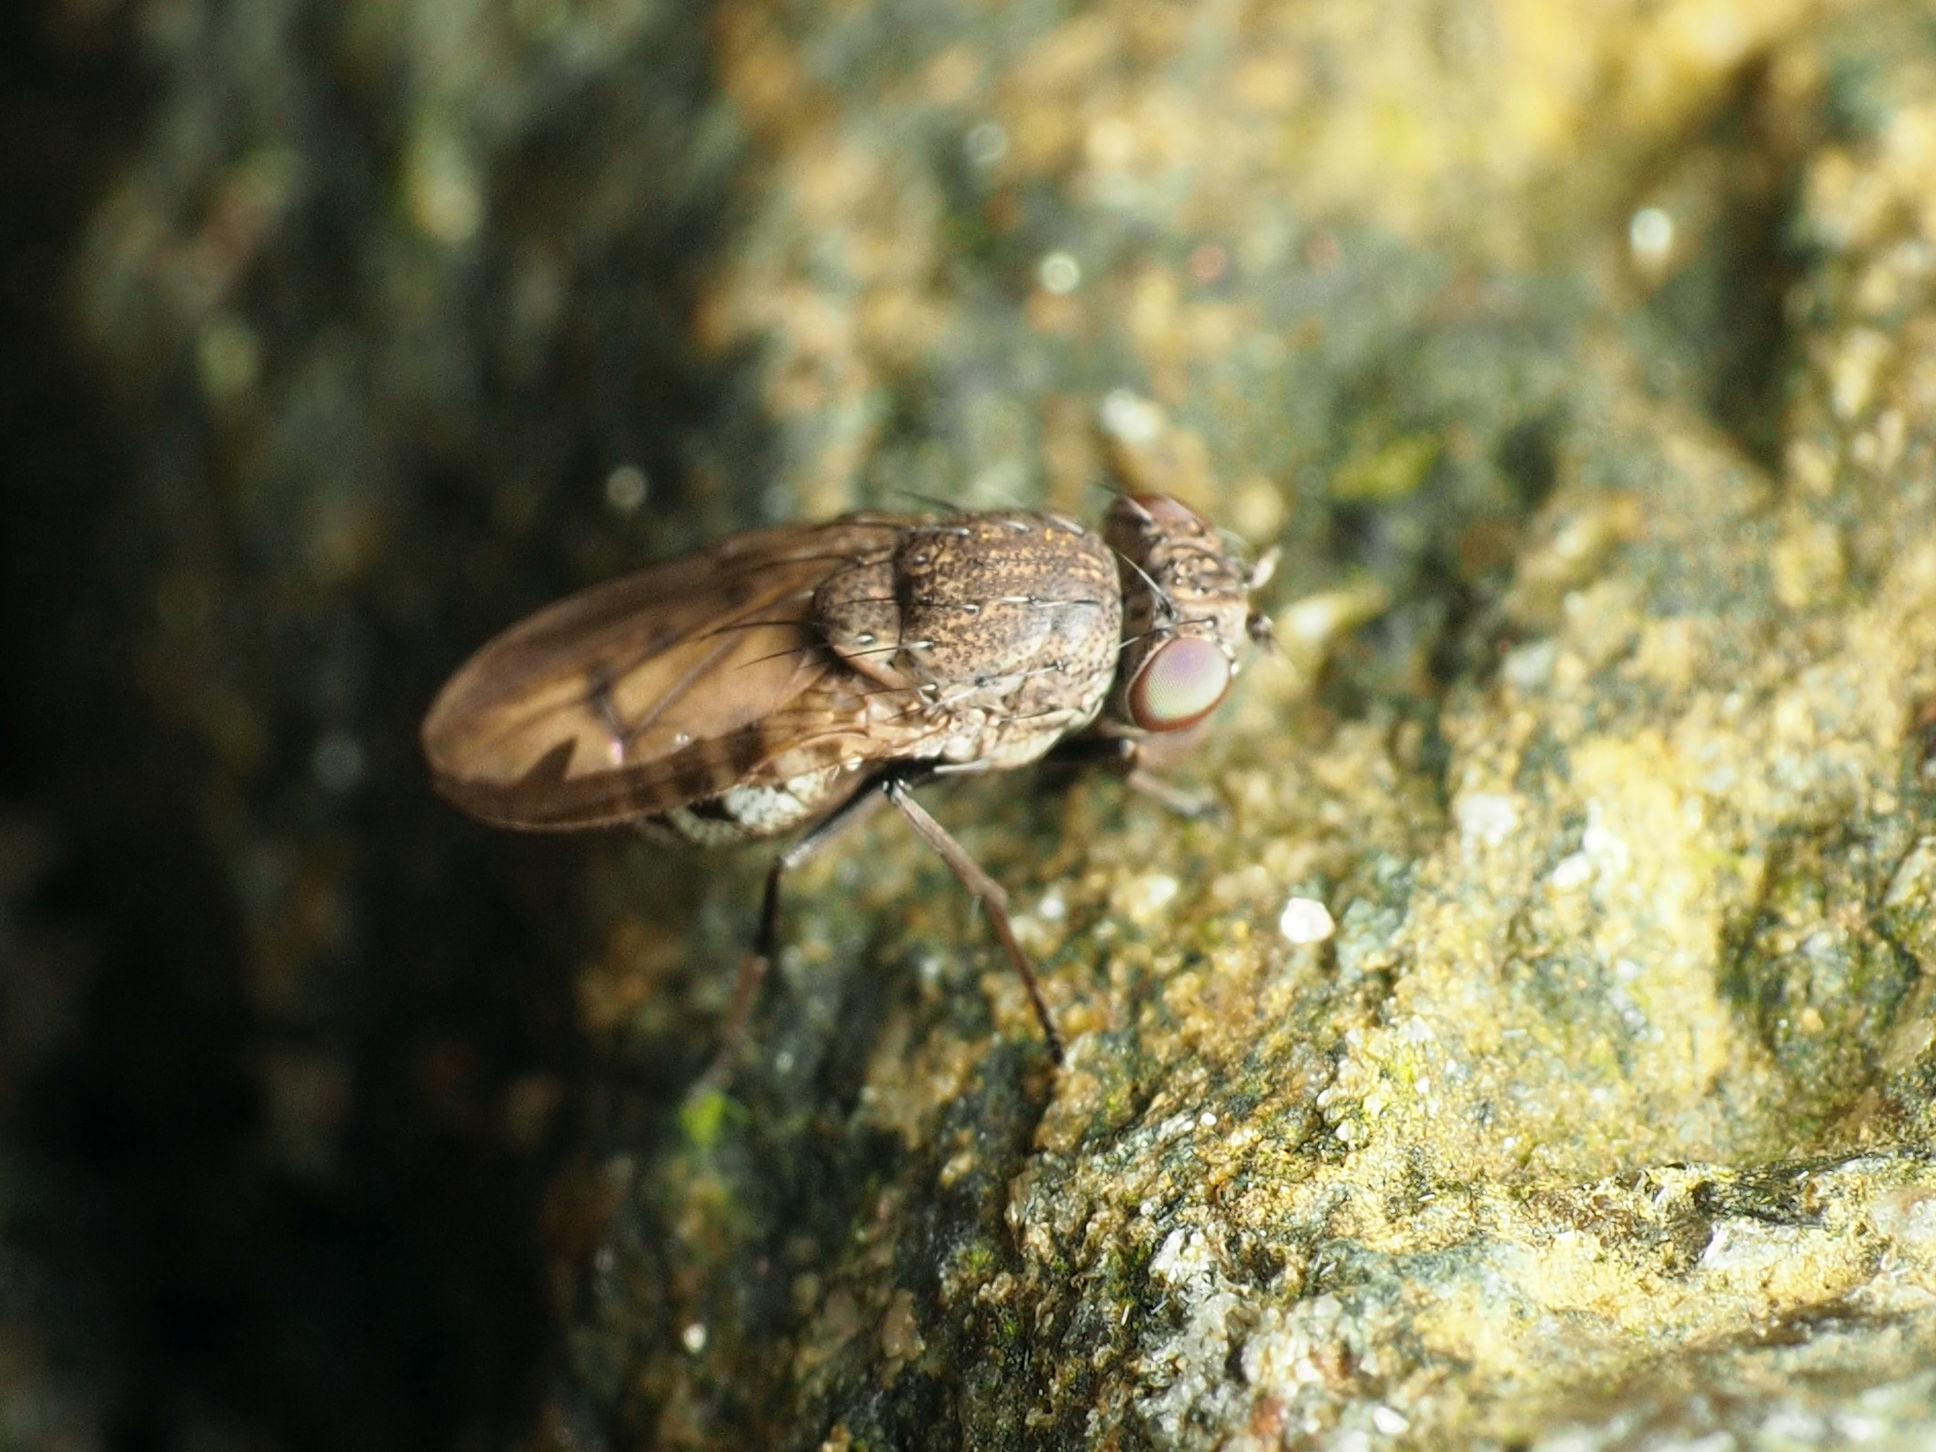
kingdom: Animalia
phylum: Arthropoda
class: Insecta
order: Diptera
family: Ephydridae
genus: Paralimna
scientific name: Paralimna punctipennis
